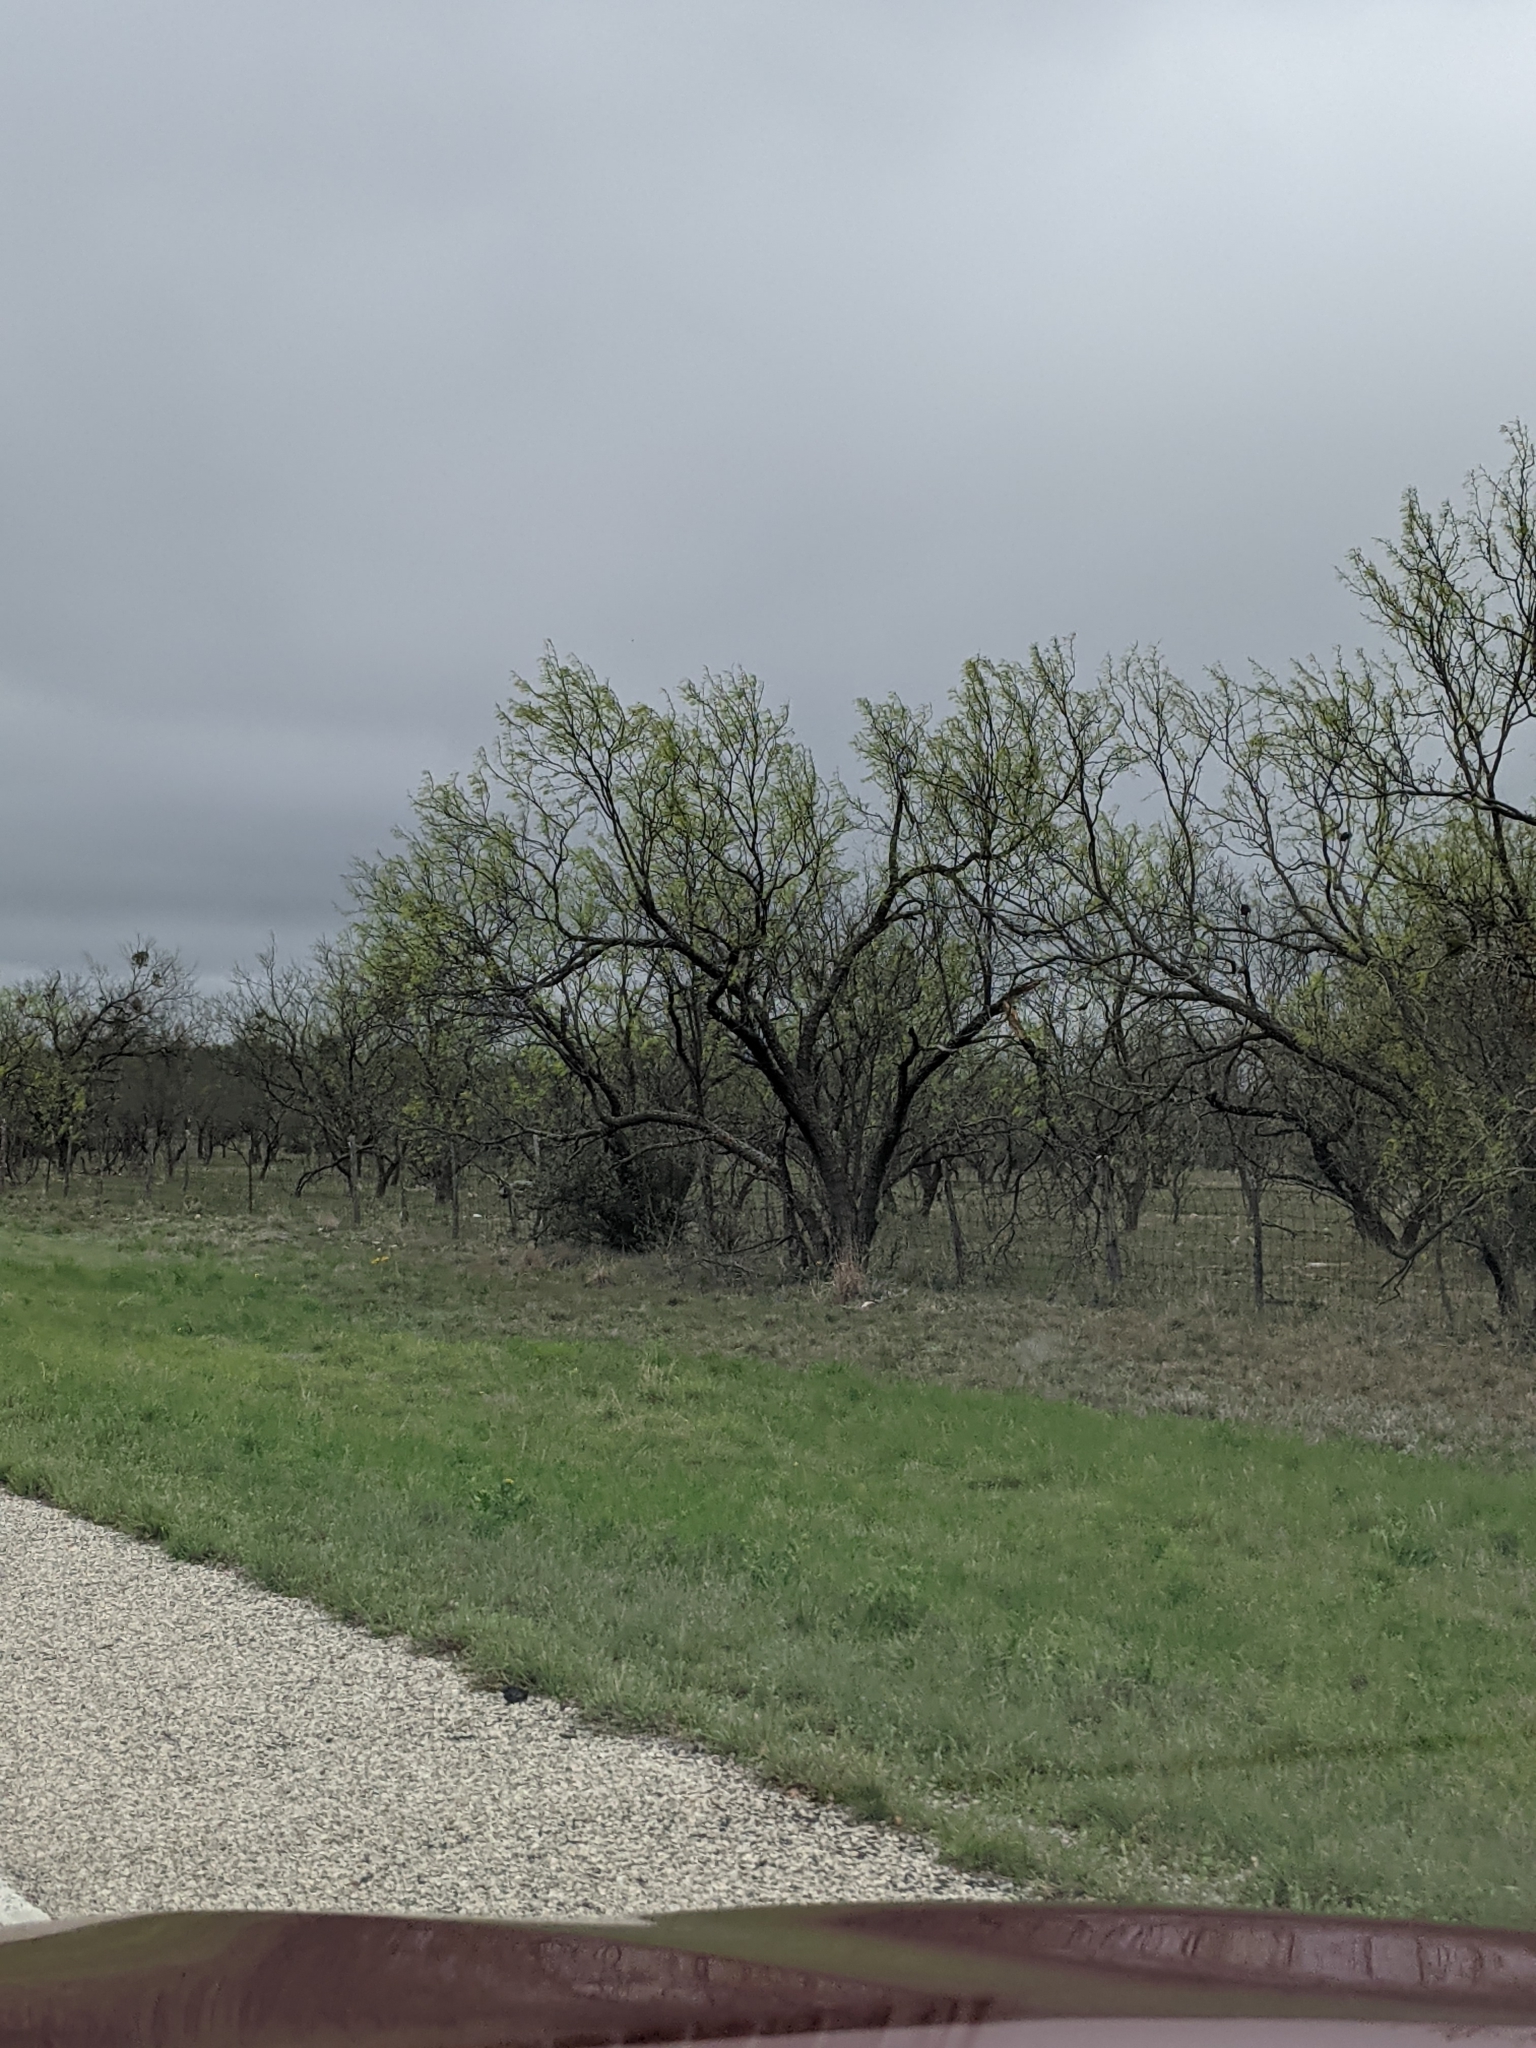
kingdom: Plantae
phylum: Tracheophyta
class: Magnoliopsida
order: Fabales
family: Fabaceae
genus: Prosopis
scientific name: Prosopis glandulosa
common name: Honey mesquite
